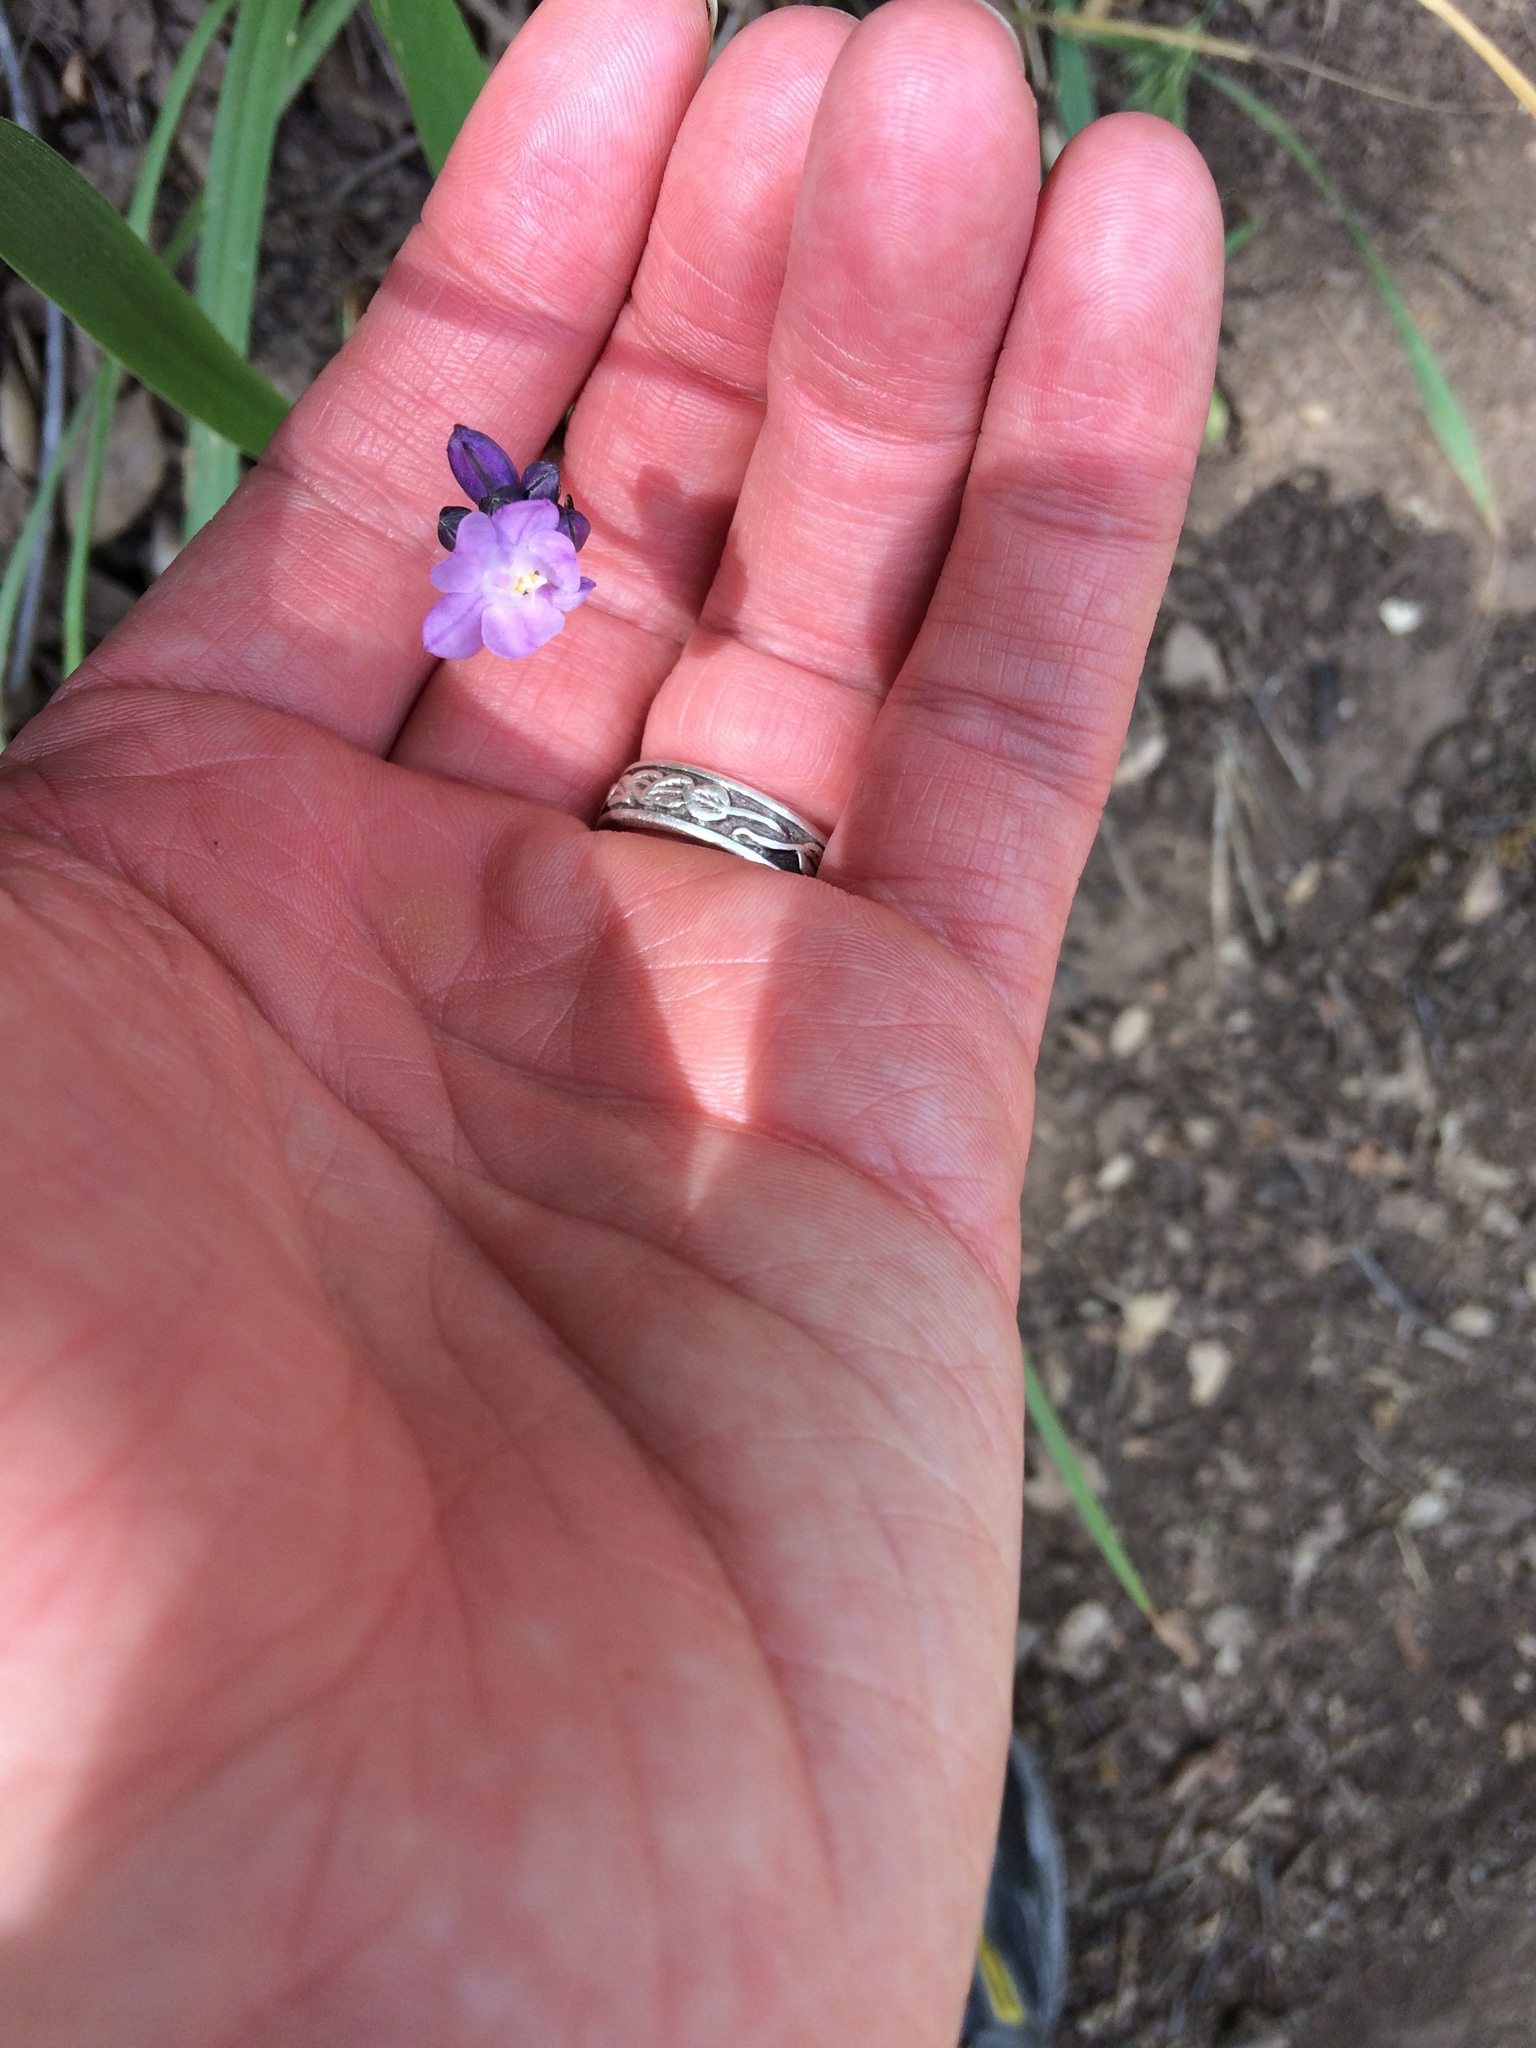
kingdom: Plantae
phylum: Tracheophyta
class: Liliopsida
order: Asparagales
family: Asparagaceae
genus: Dipterostemon
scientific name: Dipterostemon capitatus
